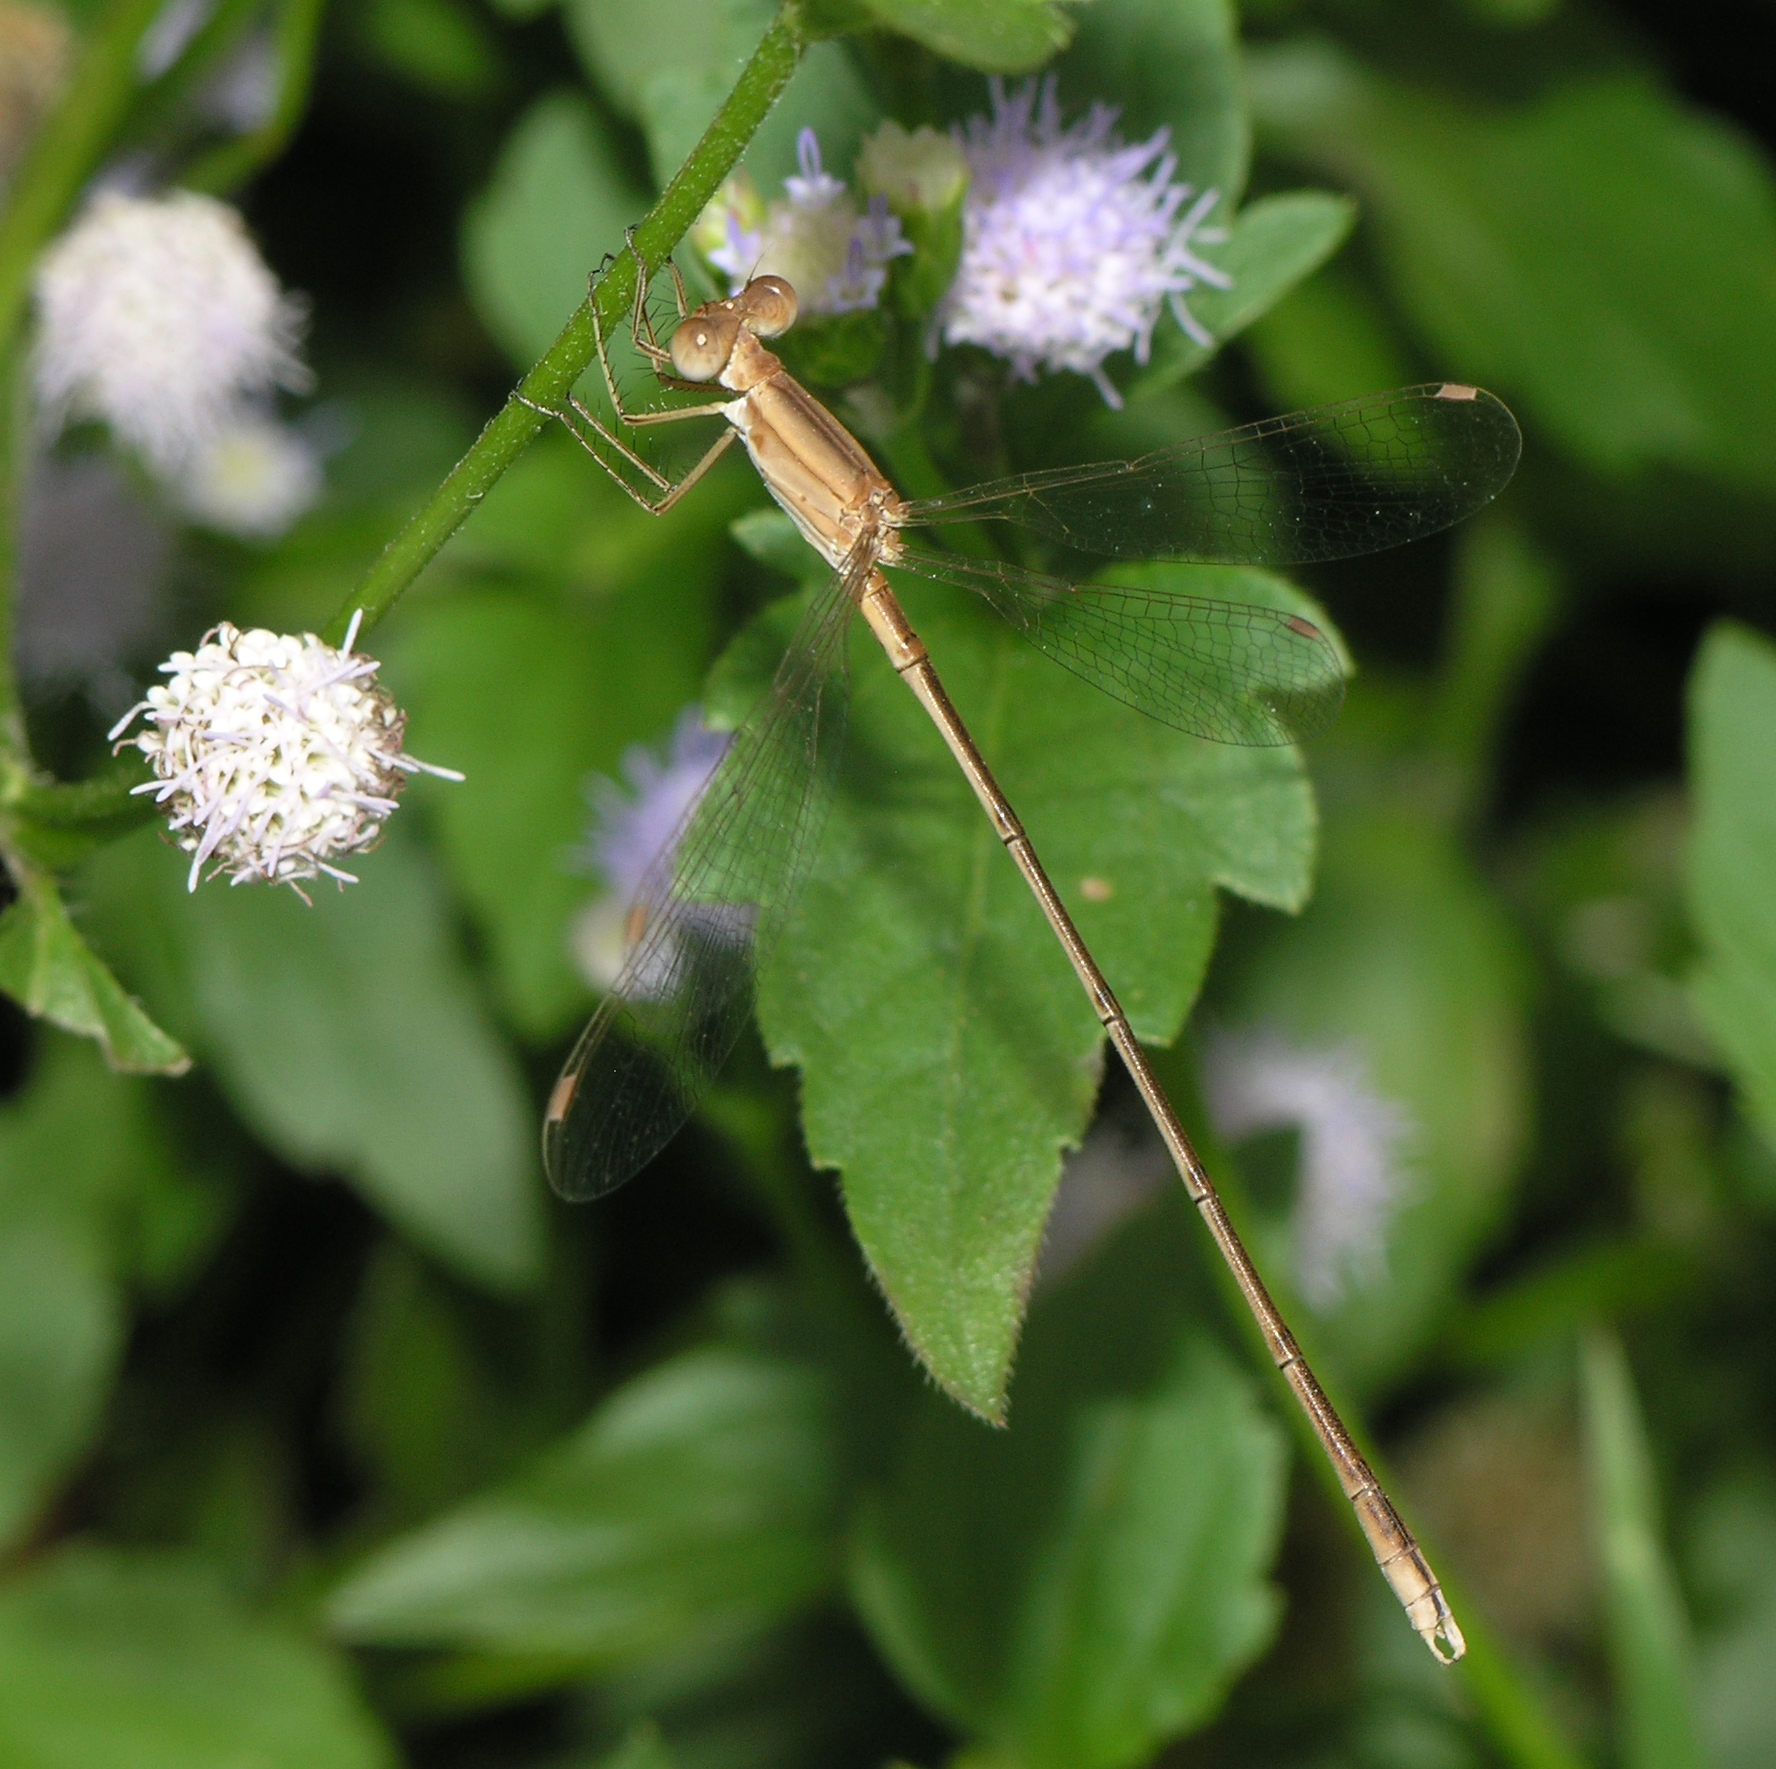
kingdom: Animalia
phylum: Arthropoda
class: Insecta
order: Odonata
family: Lestidae
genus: Lestes
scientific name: Lestes concinnus
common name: Dusky spreadwing
